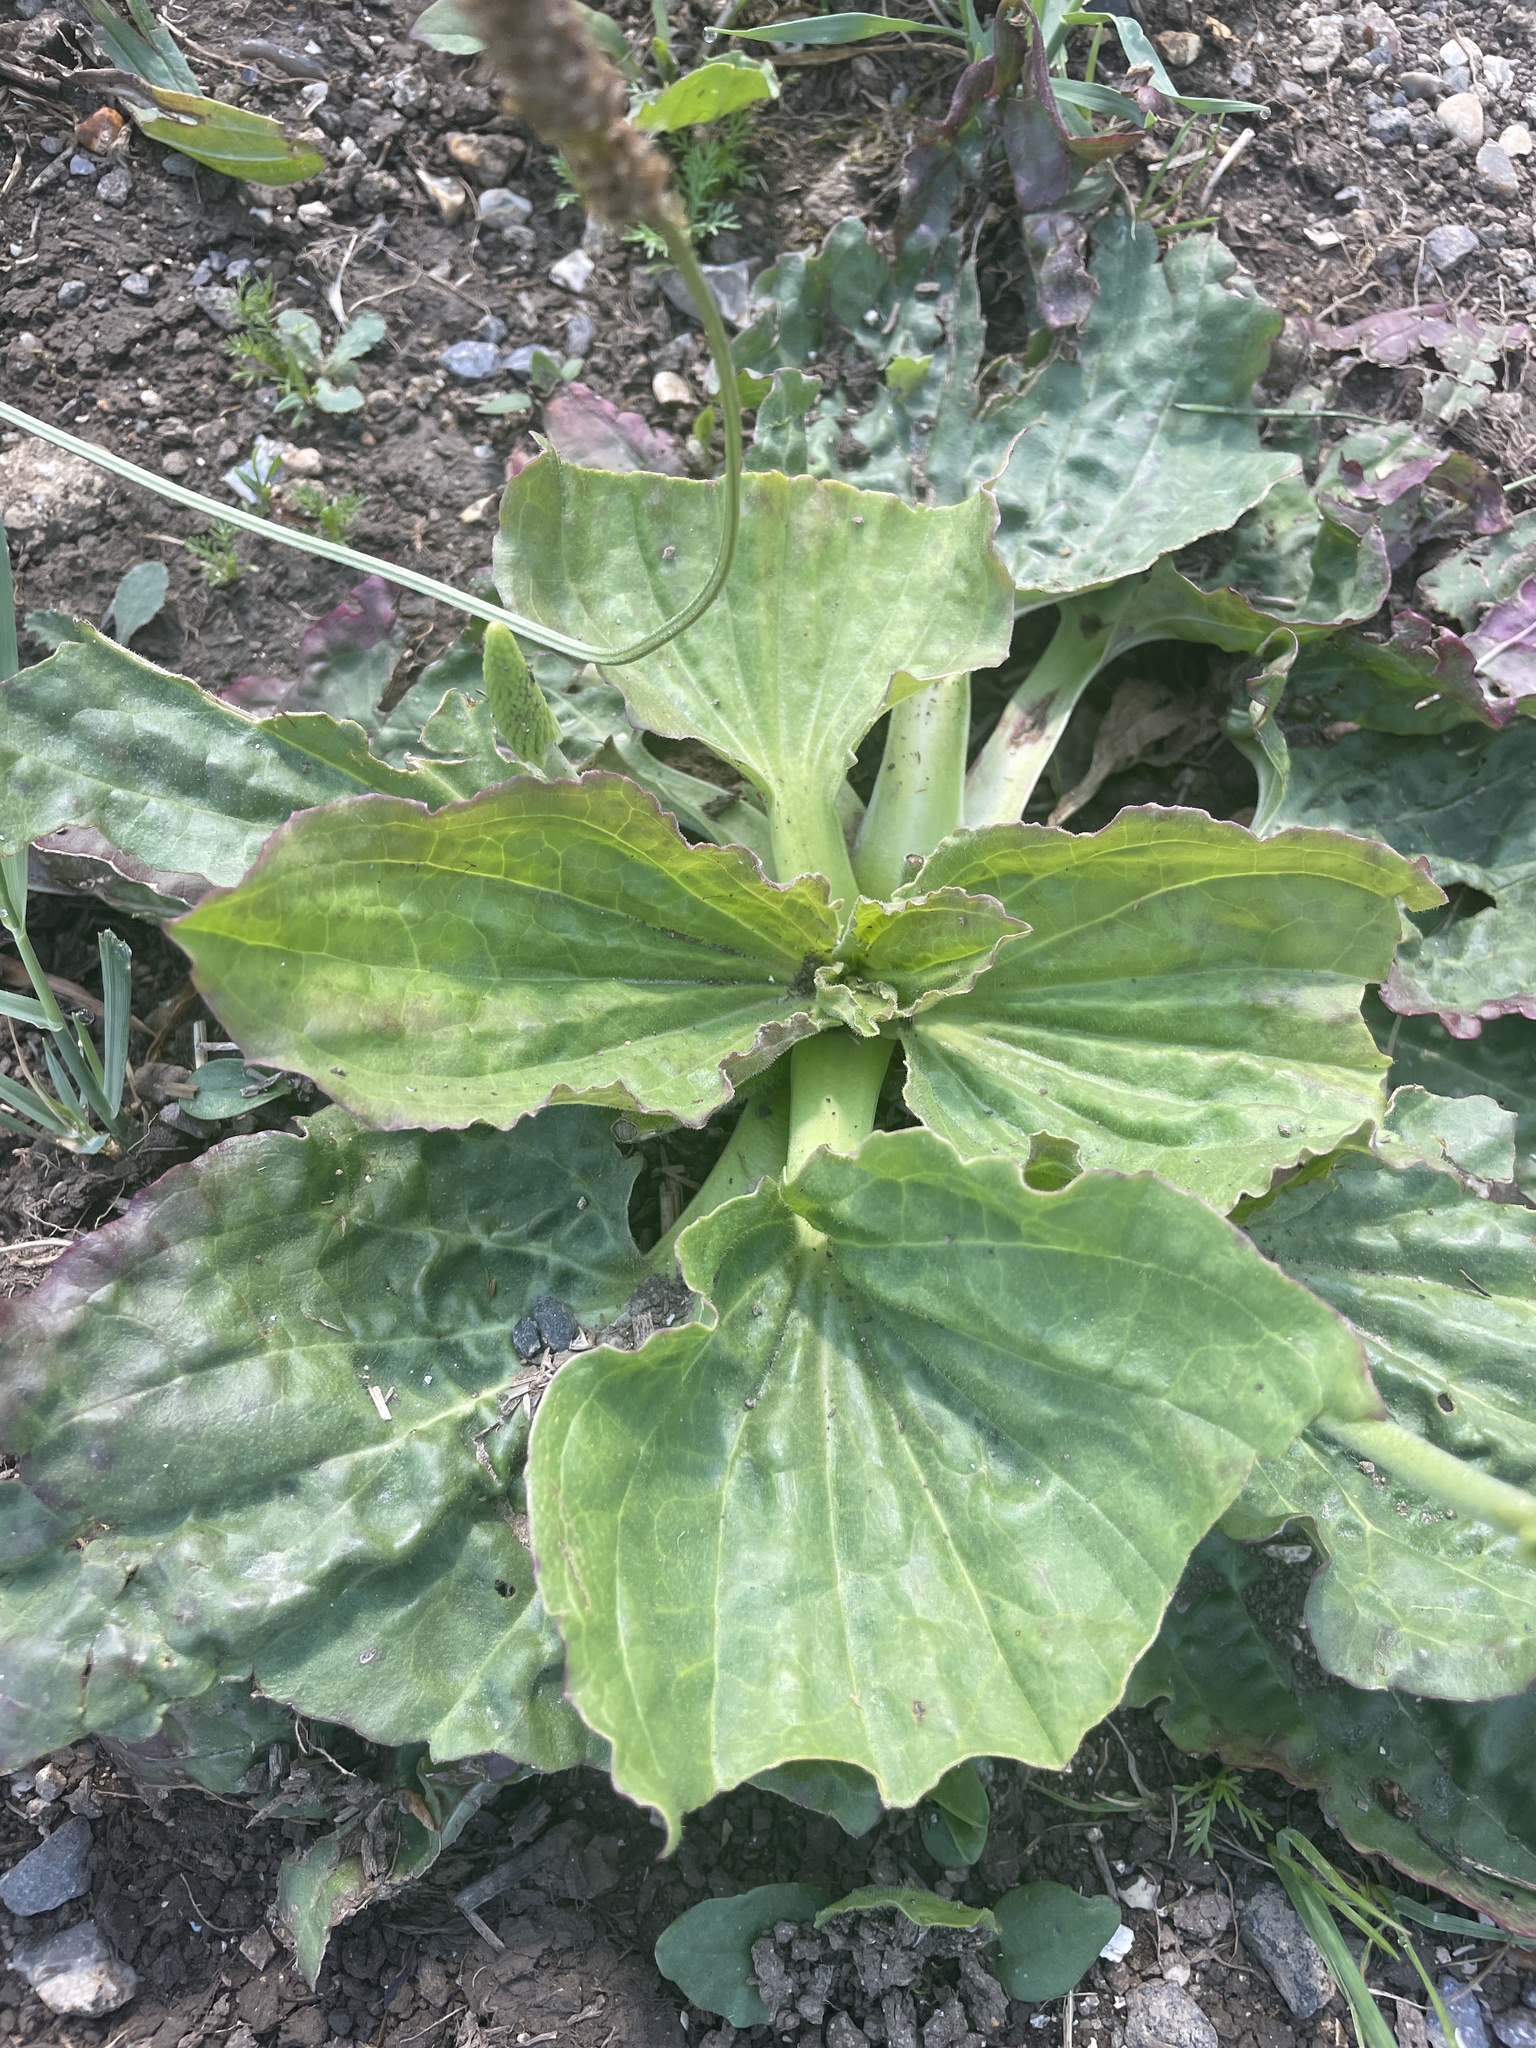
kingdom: Plantae
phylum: Tracheophyta
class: Magnoliopsida
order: Lamiales
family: Plantaginaceae
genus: Plantago
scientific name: Plantago major
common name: Common plantain
